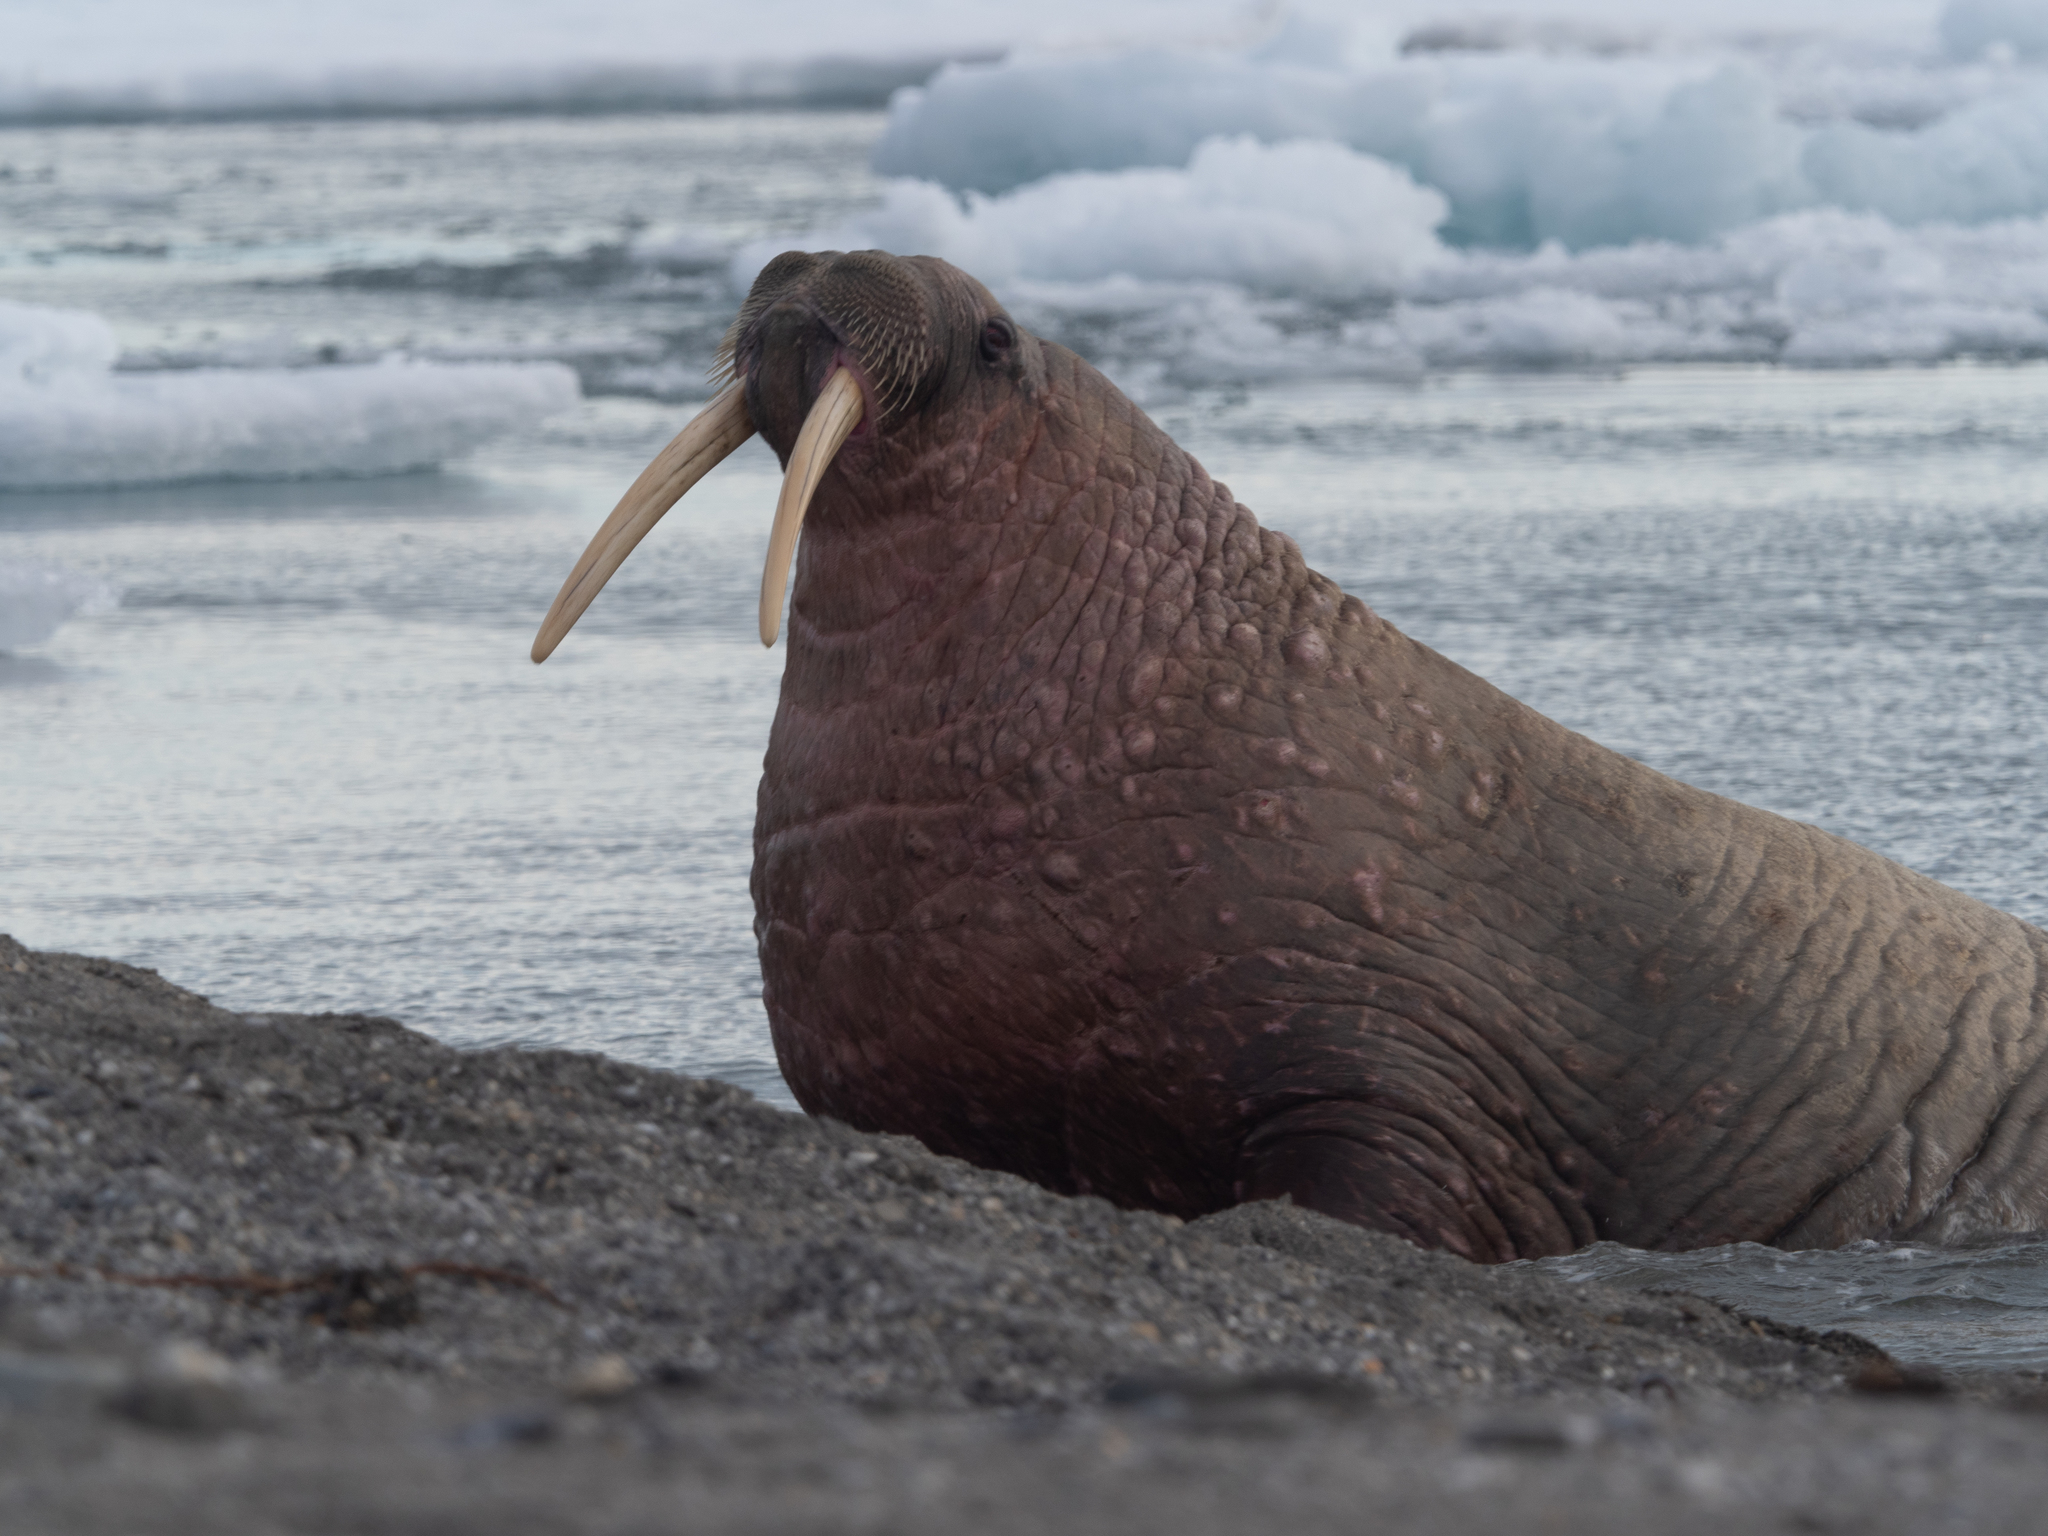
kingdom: Animalia
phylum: Chordata
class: Mammalia
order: Carnivora
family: Odobenidae
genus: Odobenus
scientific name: Odobenus rosmarus
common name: Walrus
